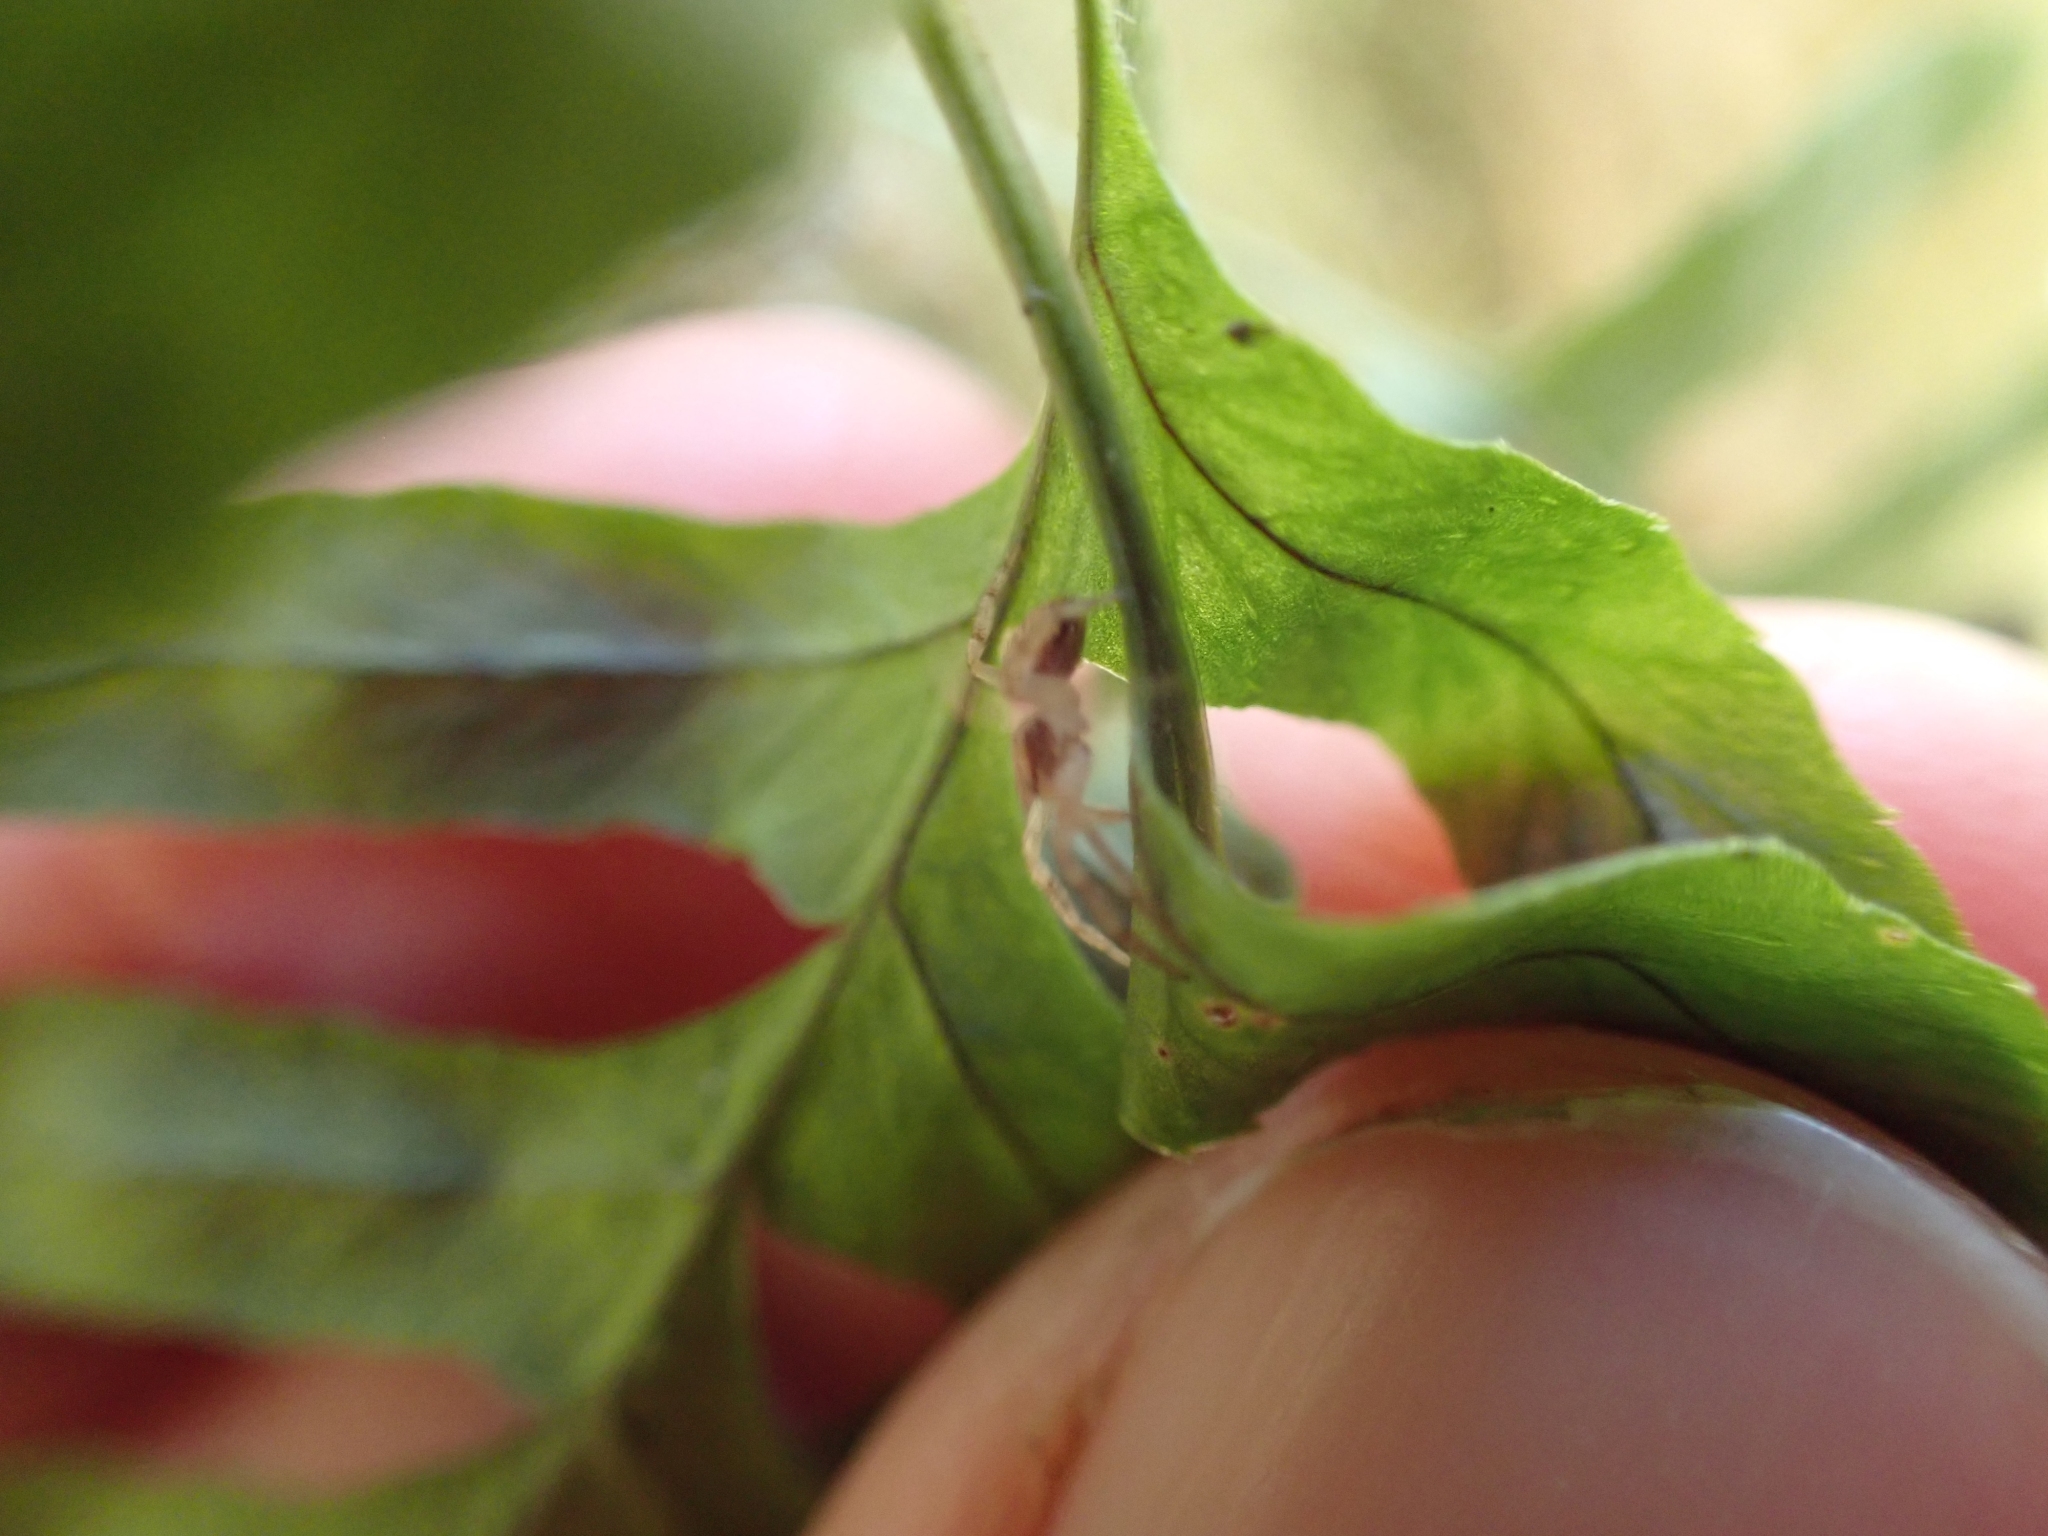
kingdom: Plantae
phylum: Tracheophyta
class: Polypodiopsida
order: Polypodiales
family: Polypodiaceae
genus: Polypodium
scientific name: Polypodium glycyrrhiza
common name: Licorice fern
